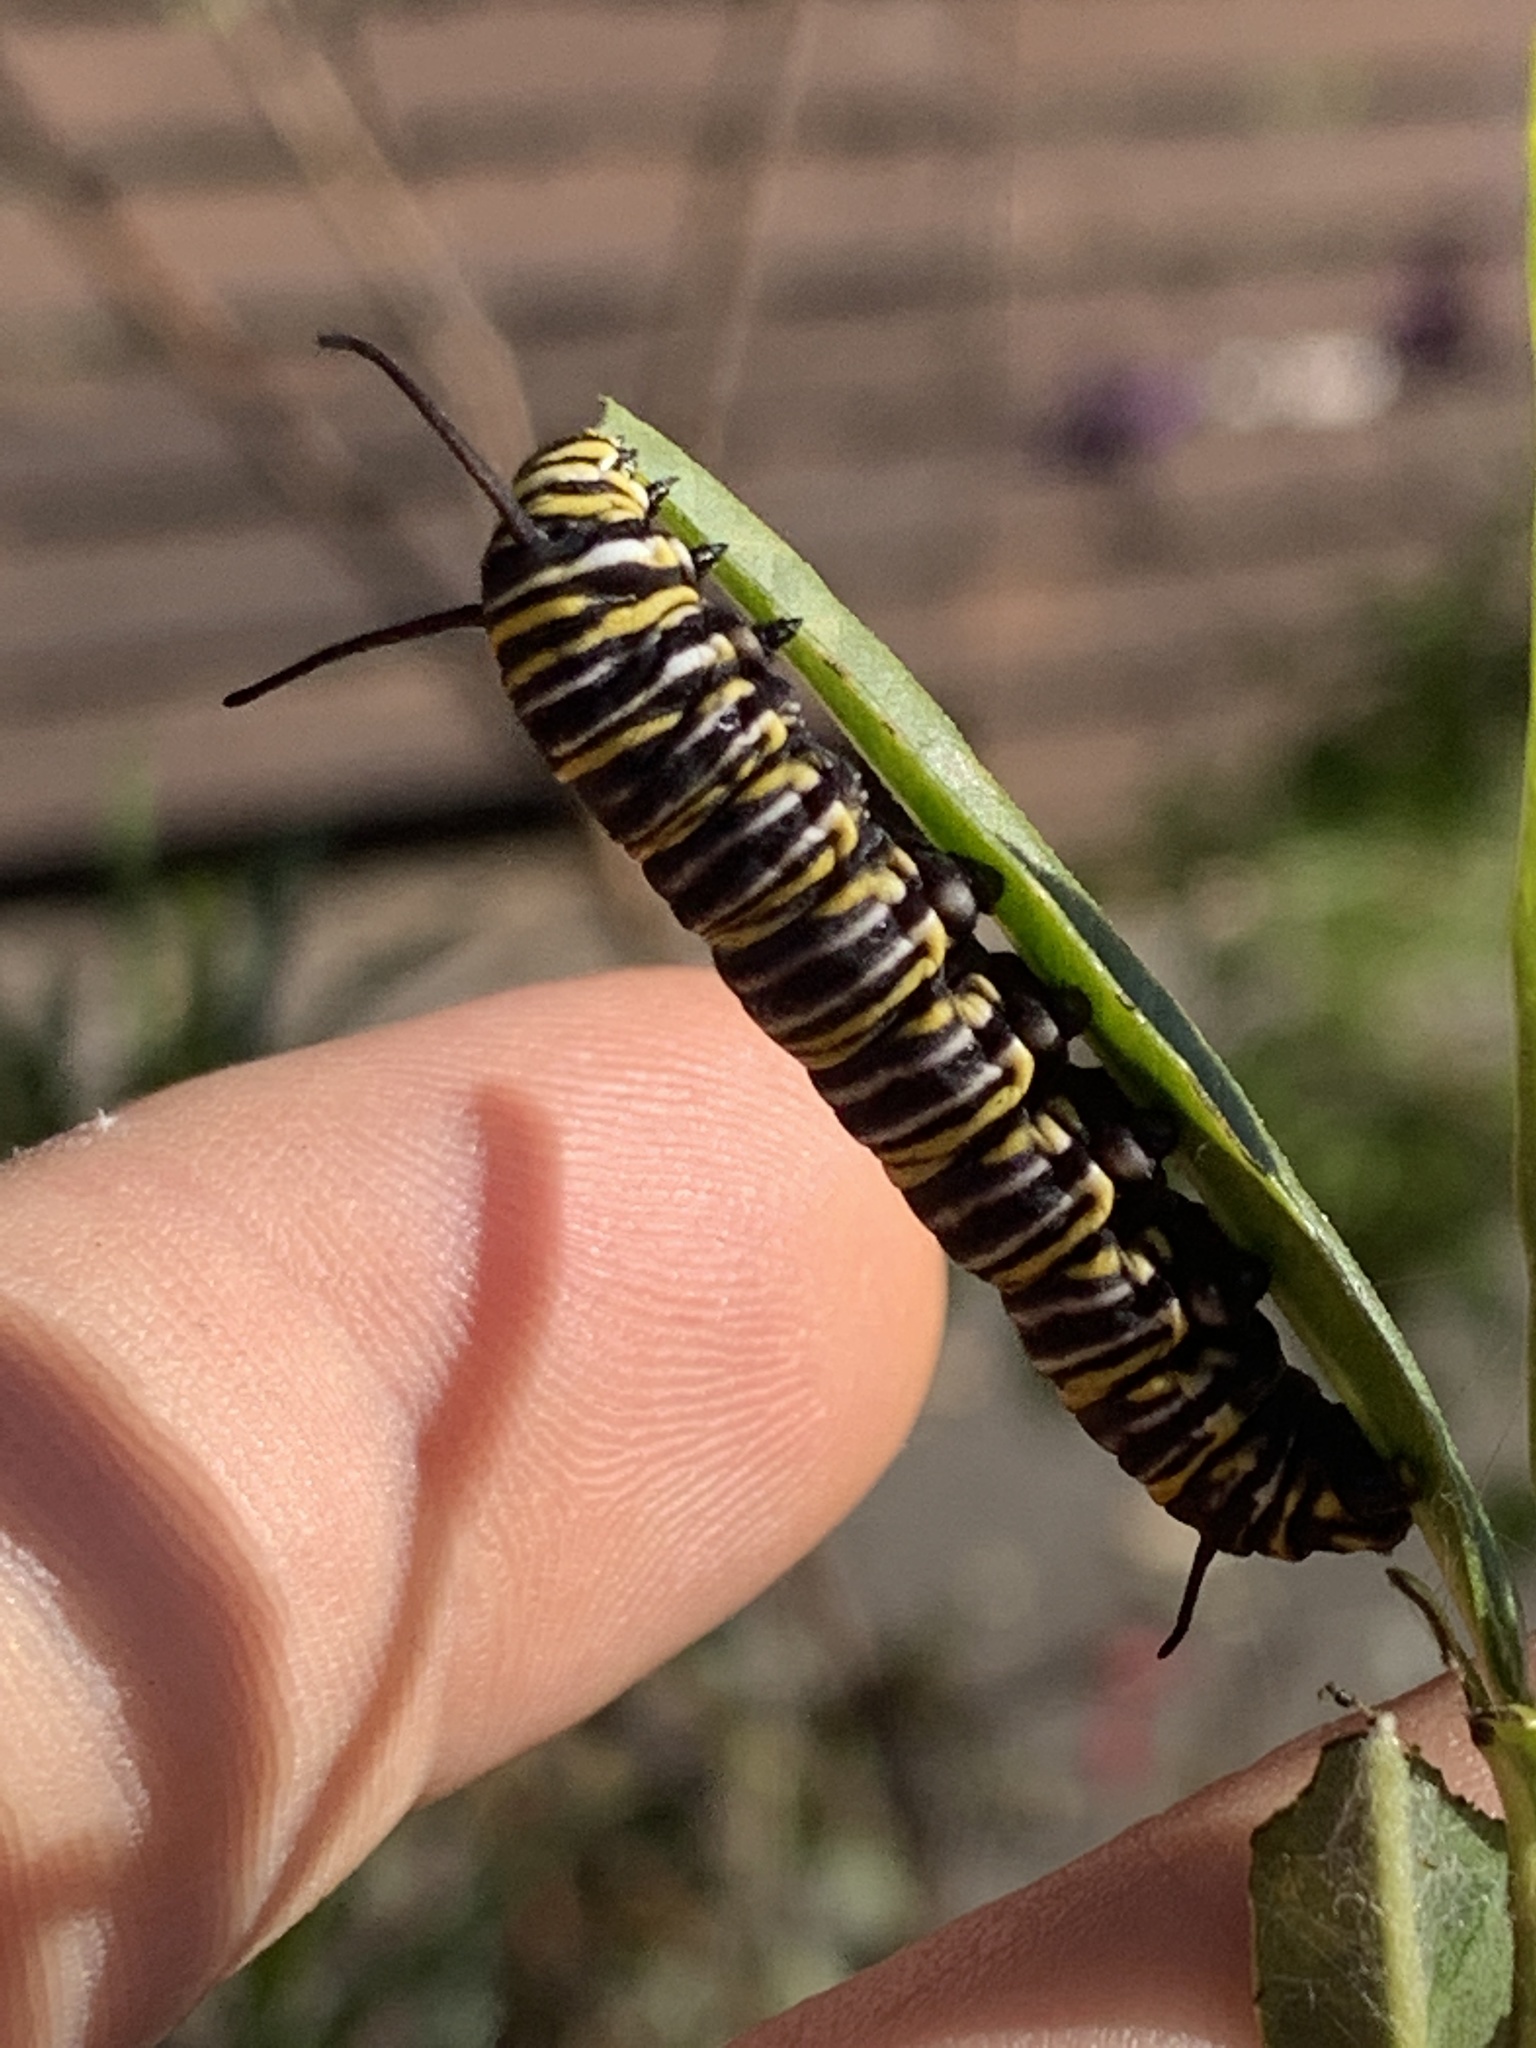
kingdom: Animalia
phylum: Arthropoda
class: Insecta
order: Lepidoptera
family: Nymphalidae
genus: Danaus
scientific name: Danaus plexippus
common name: Monarch
